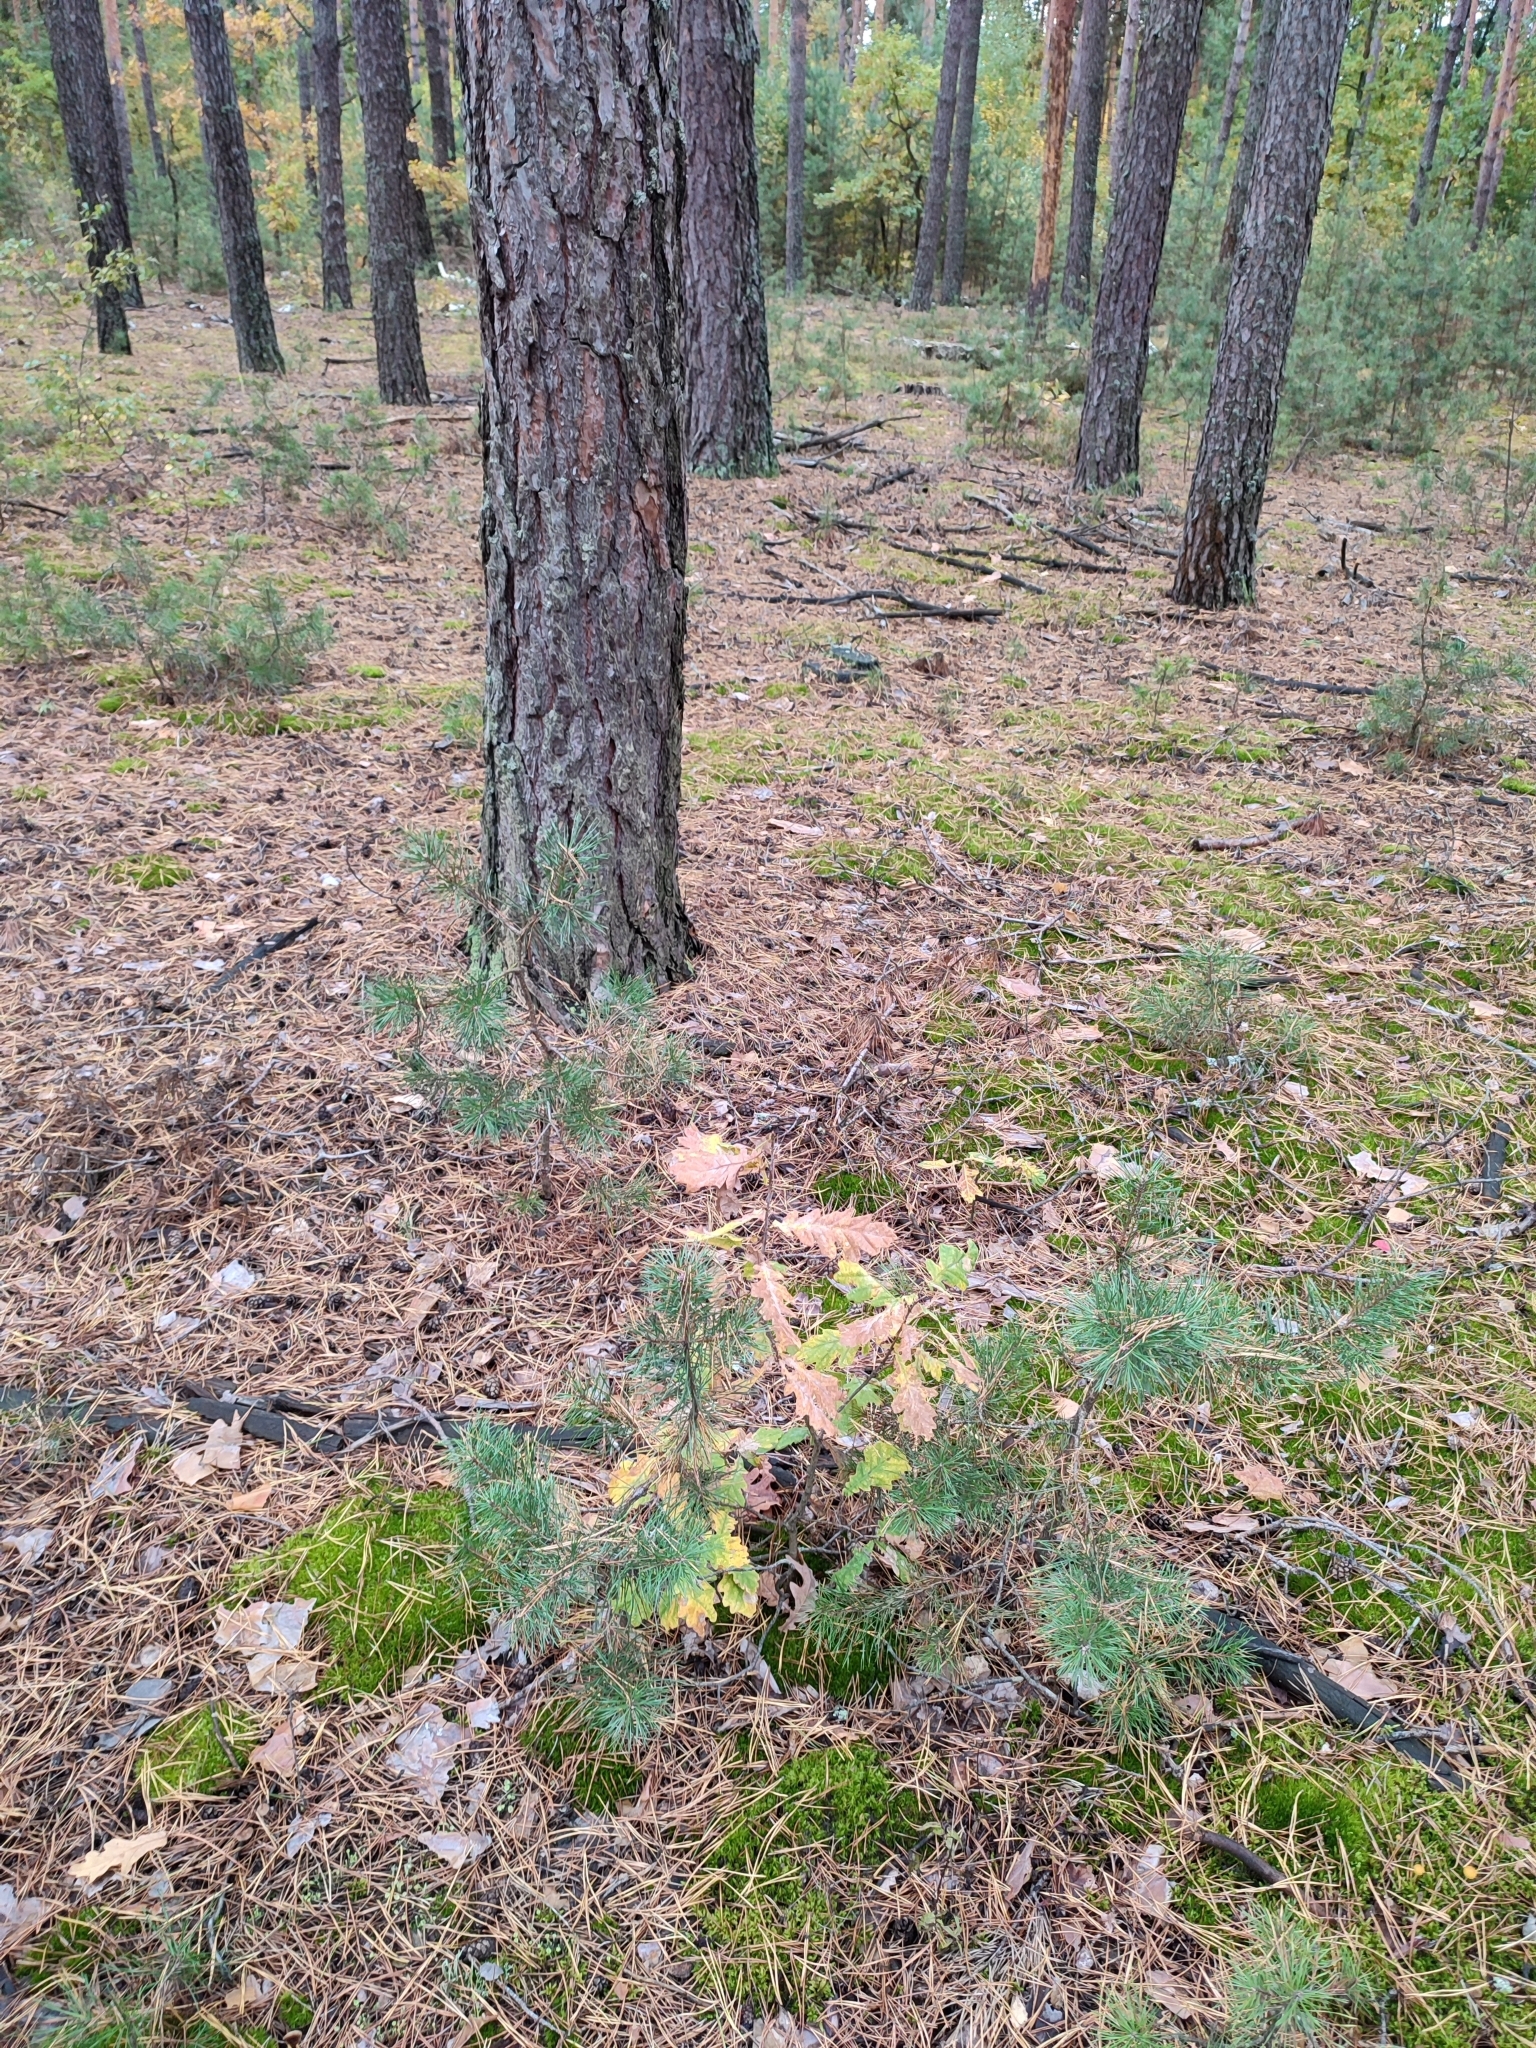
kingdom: Plantae
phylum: Tracheophyta
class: Magnoliopsida
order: Fagales
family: Fagaceae
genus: Quercus
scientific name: Quercus robur
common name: Pedunculate oak
